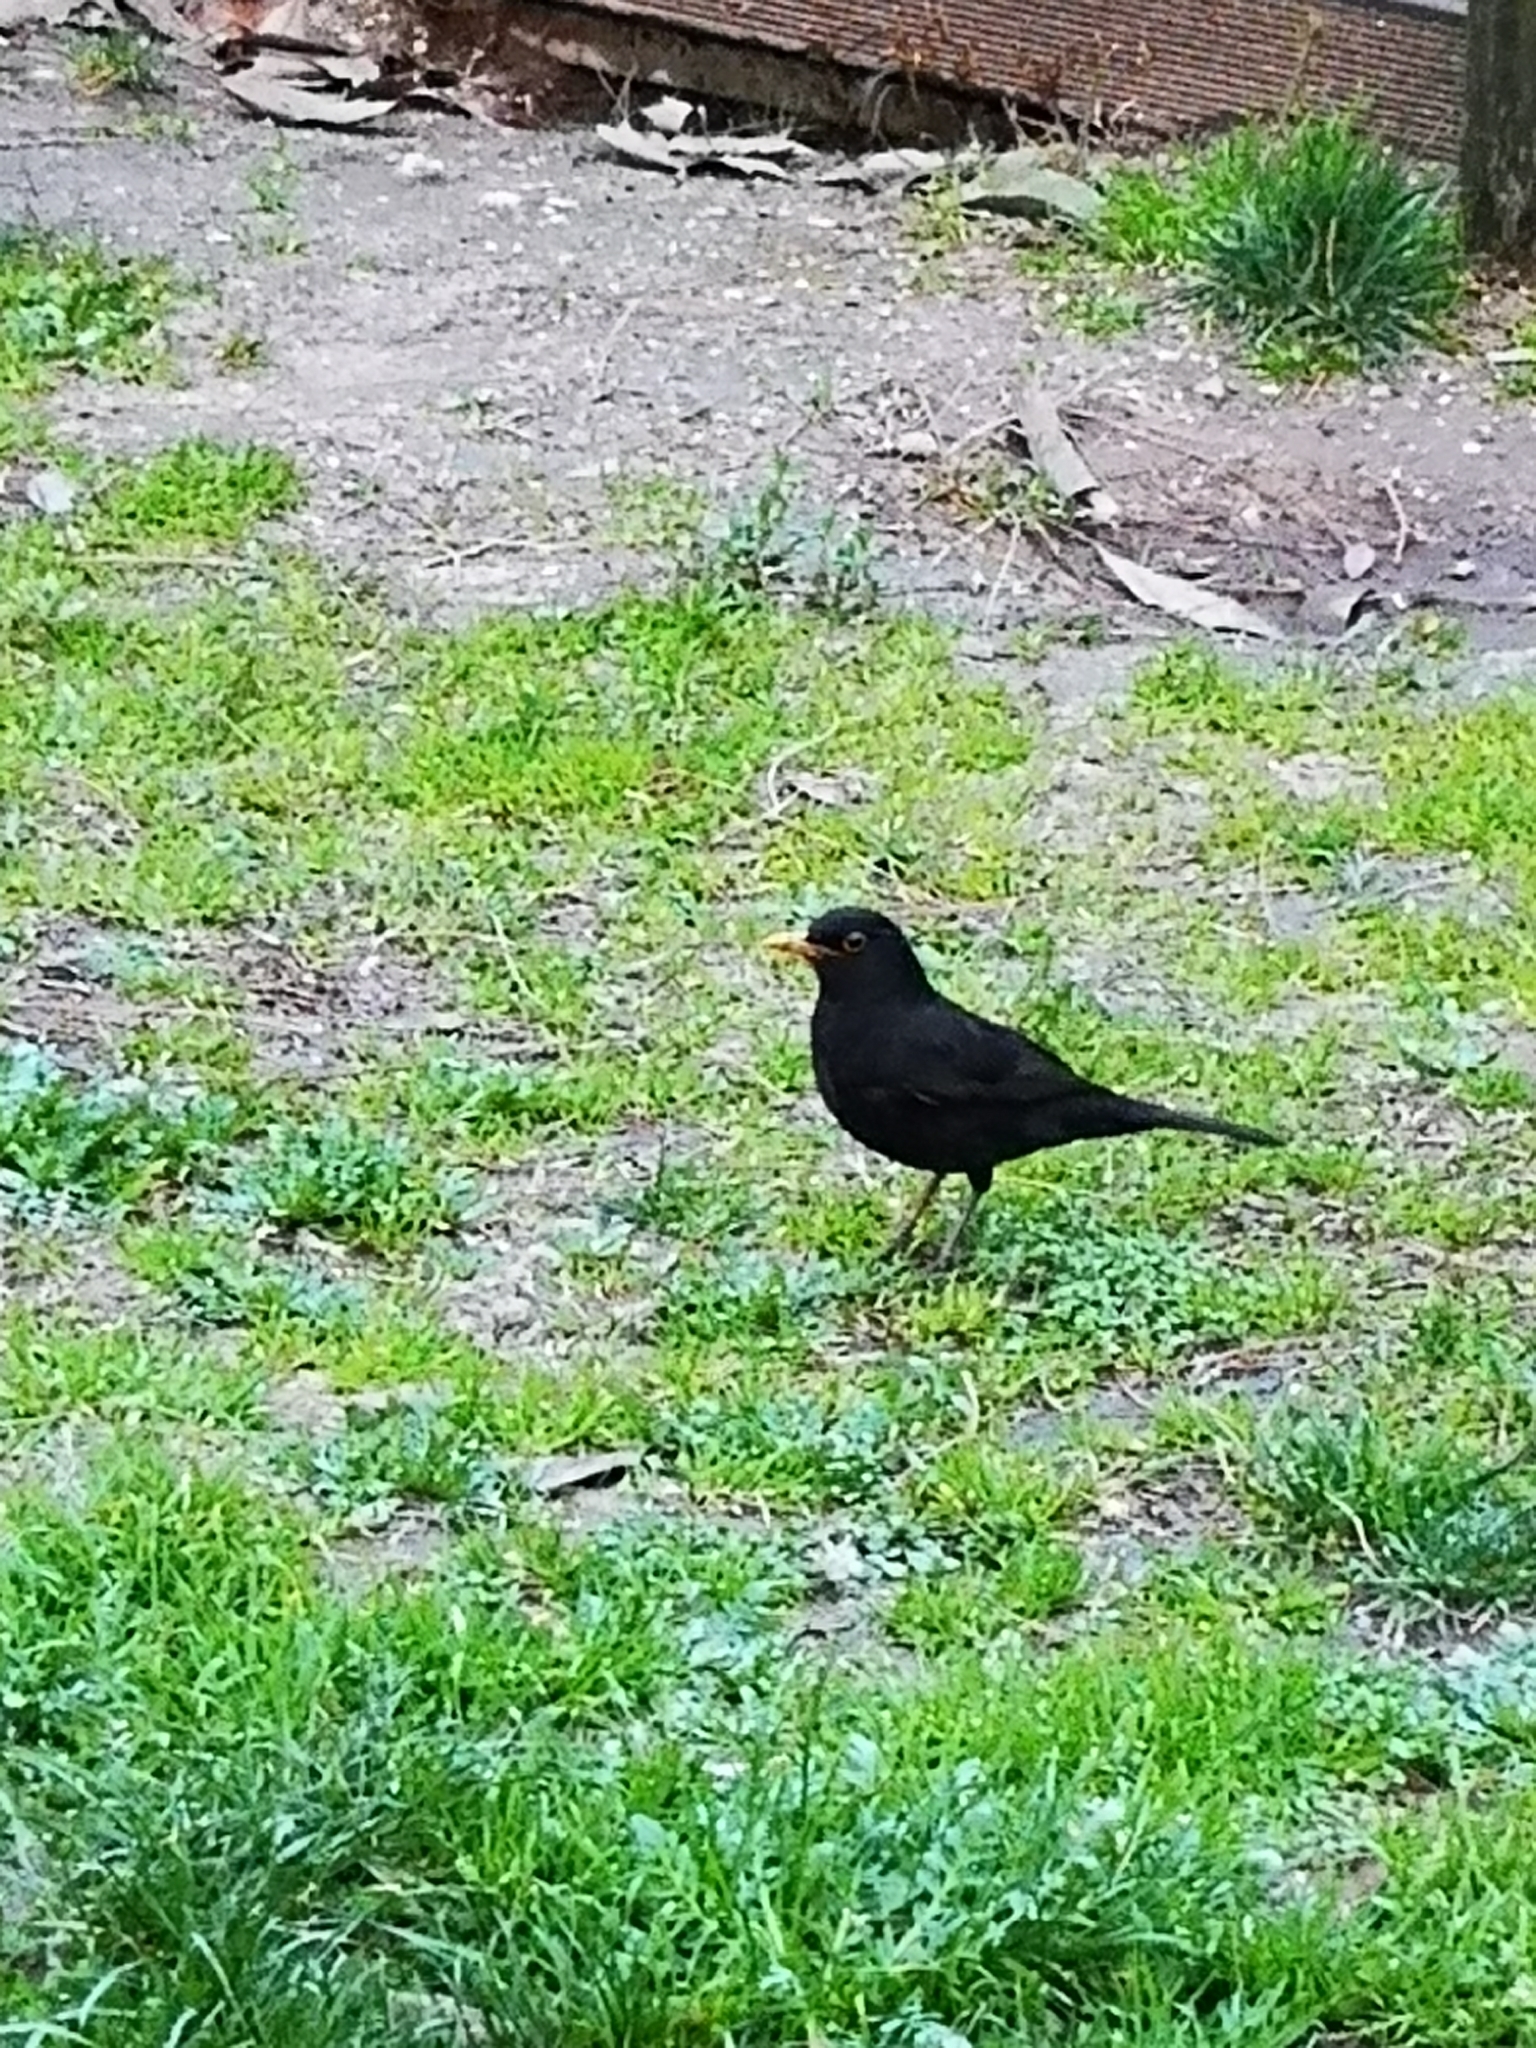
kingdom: Animalia
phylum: Chordata
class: Aves
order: Passeriformes
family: Turdidae
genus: Turdus
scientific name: Turdus merula
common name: Common blackbird
